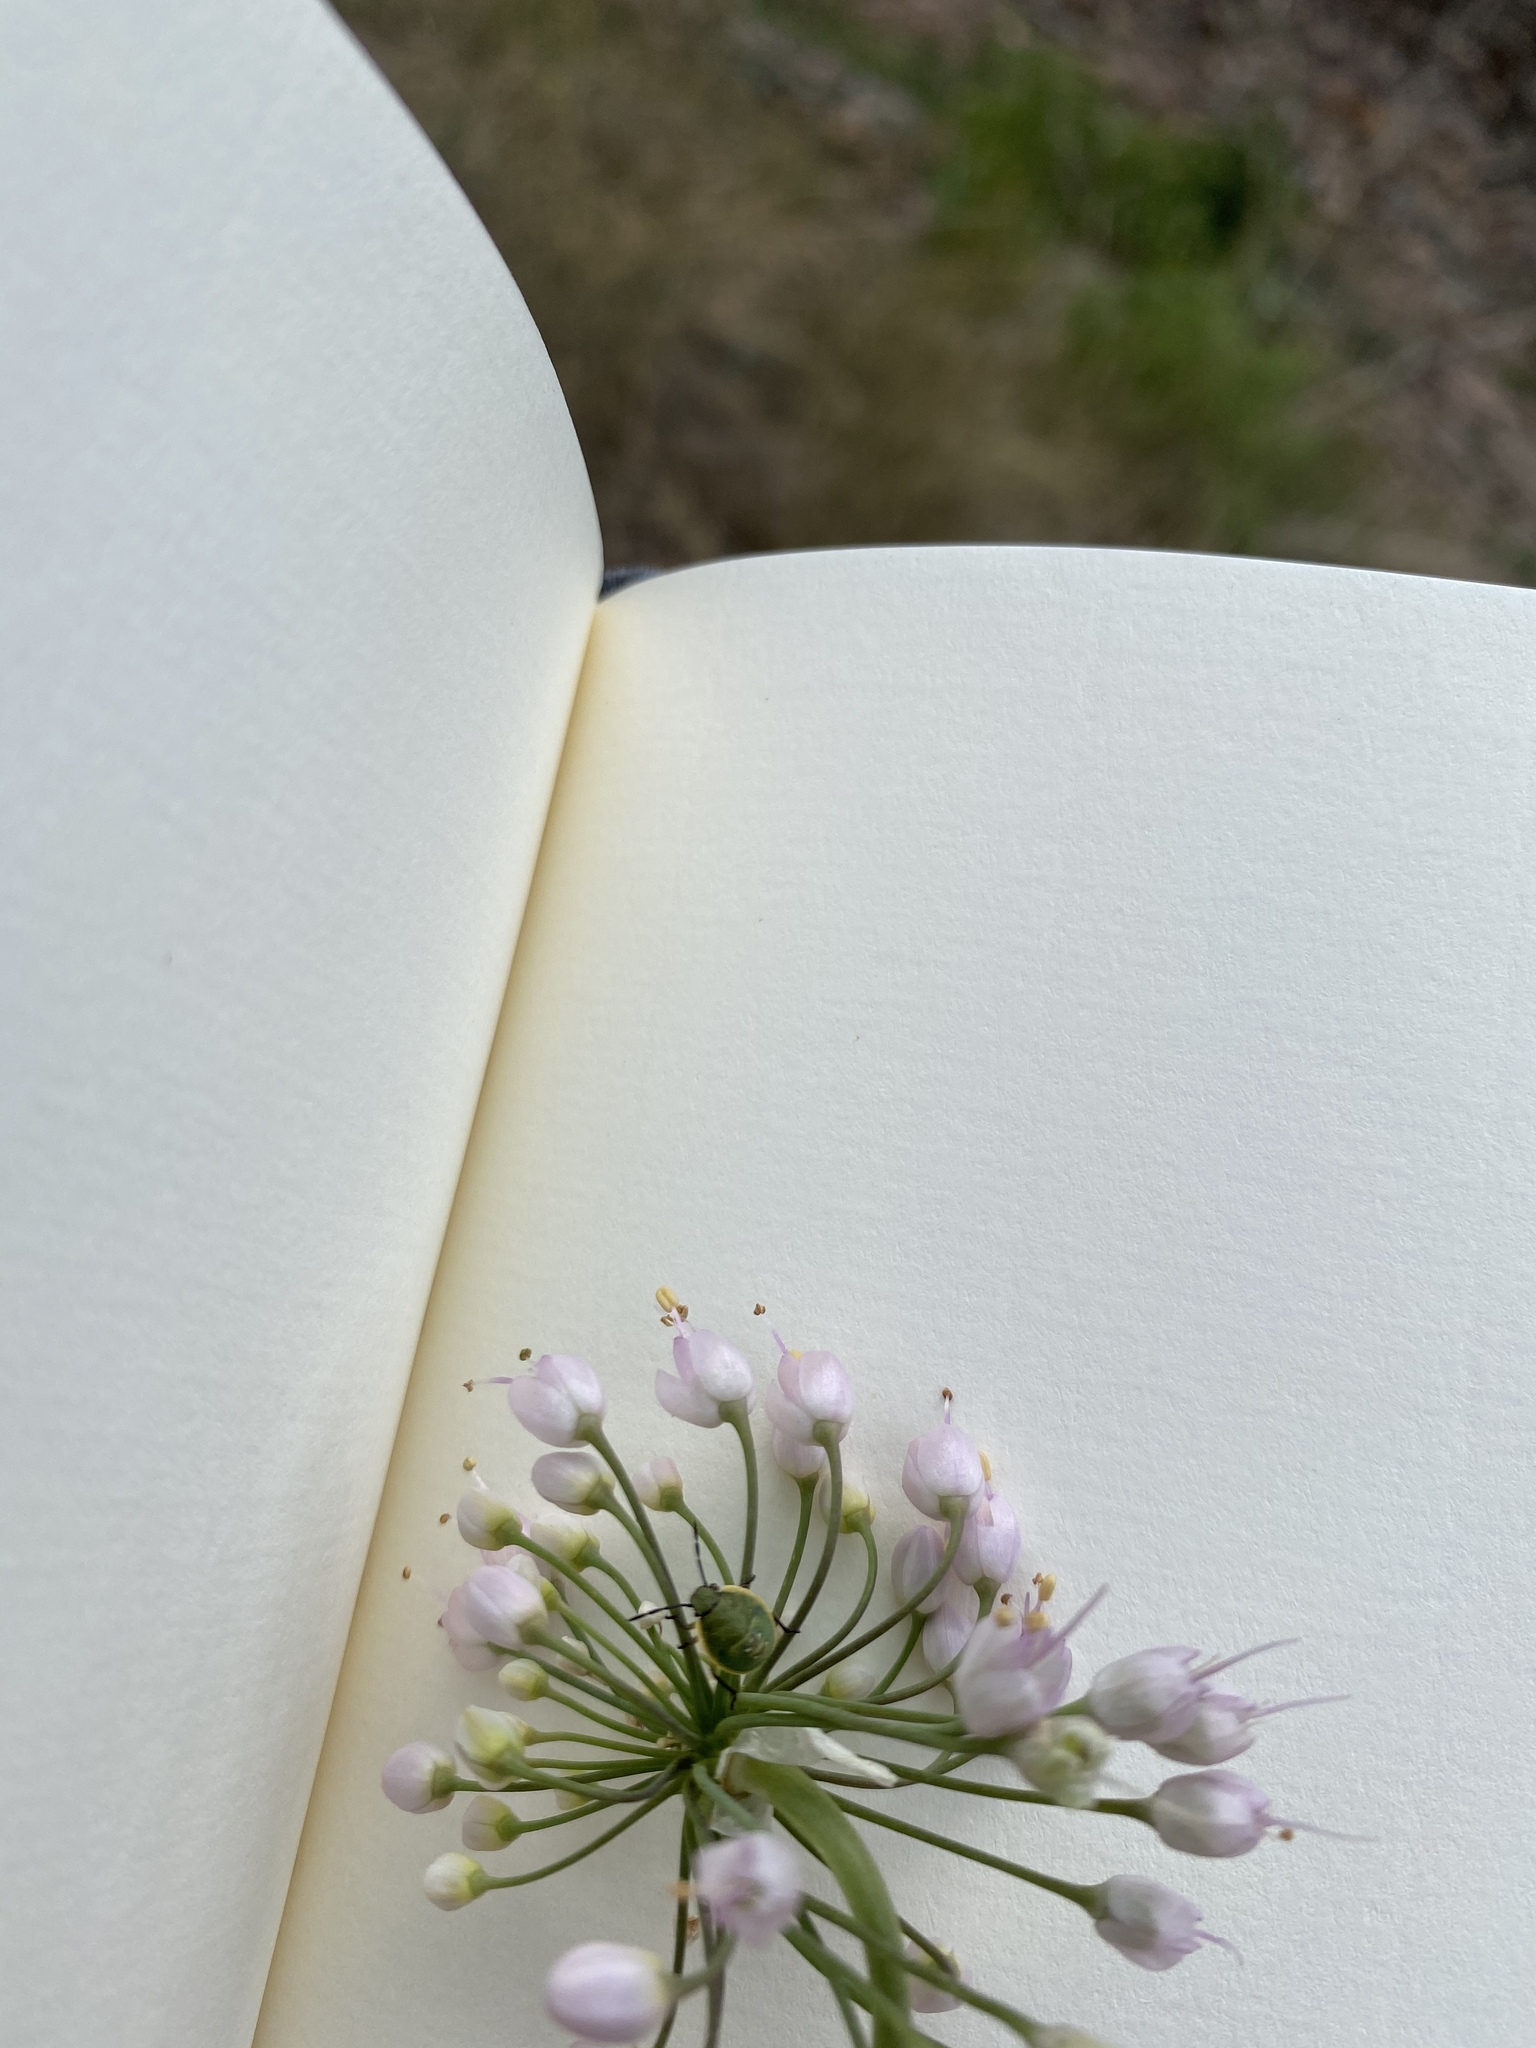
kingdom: Plantae
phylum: Tracheophyta
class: Liliopsida
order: Asparagales
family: Amaryllidaceae
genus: Allium
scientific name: Allium cernuum
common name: Nodding onion
